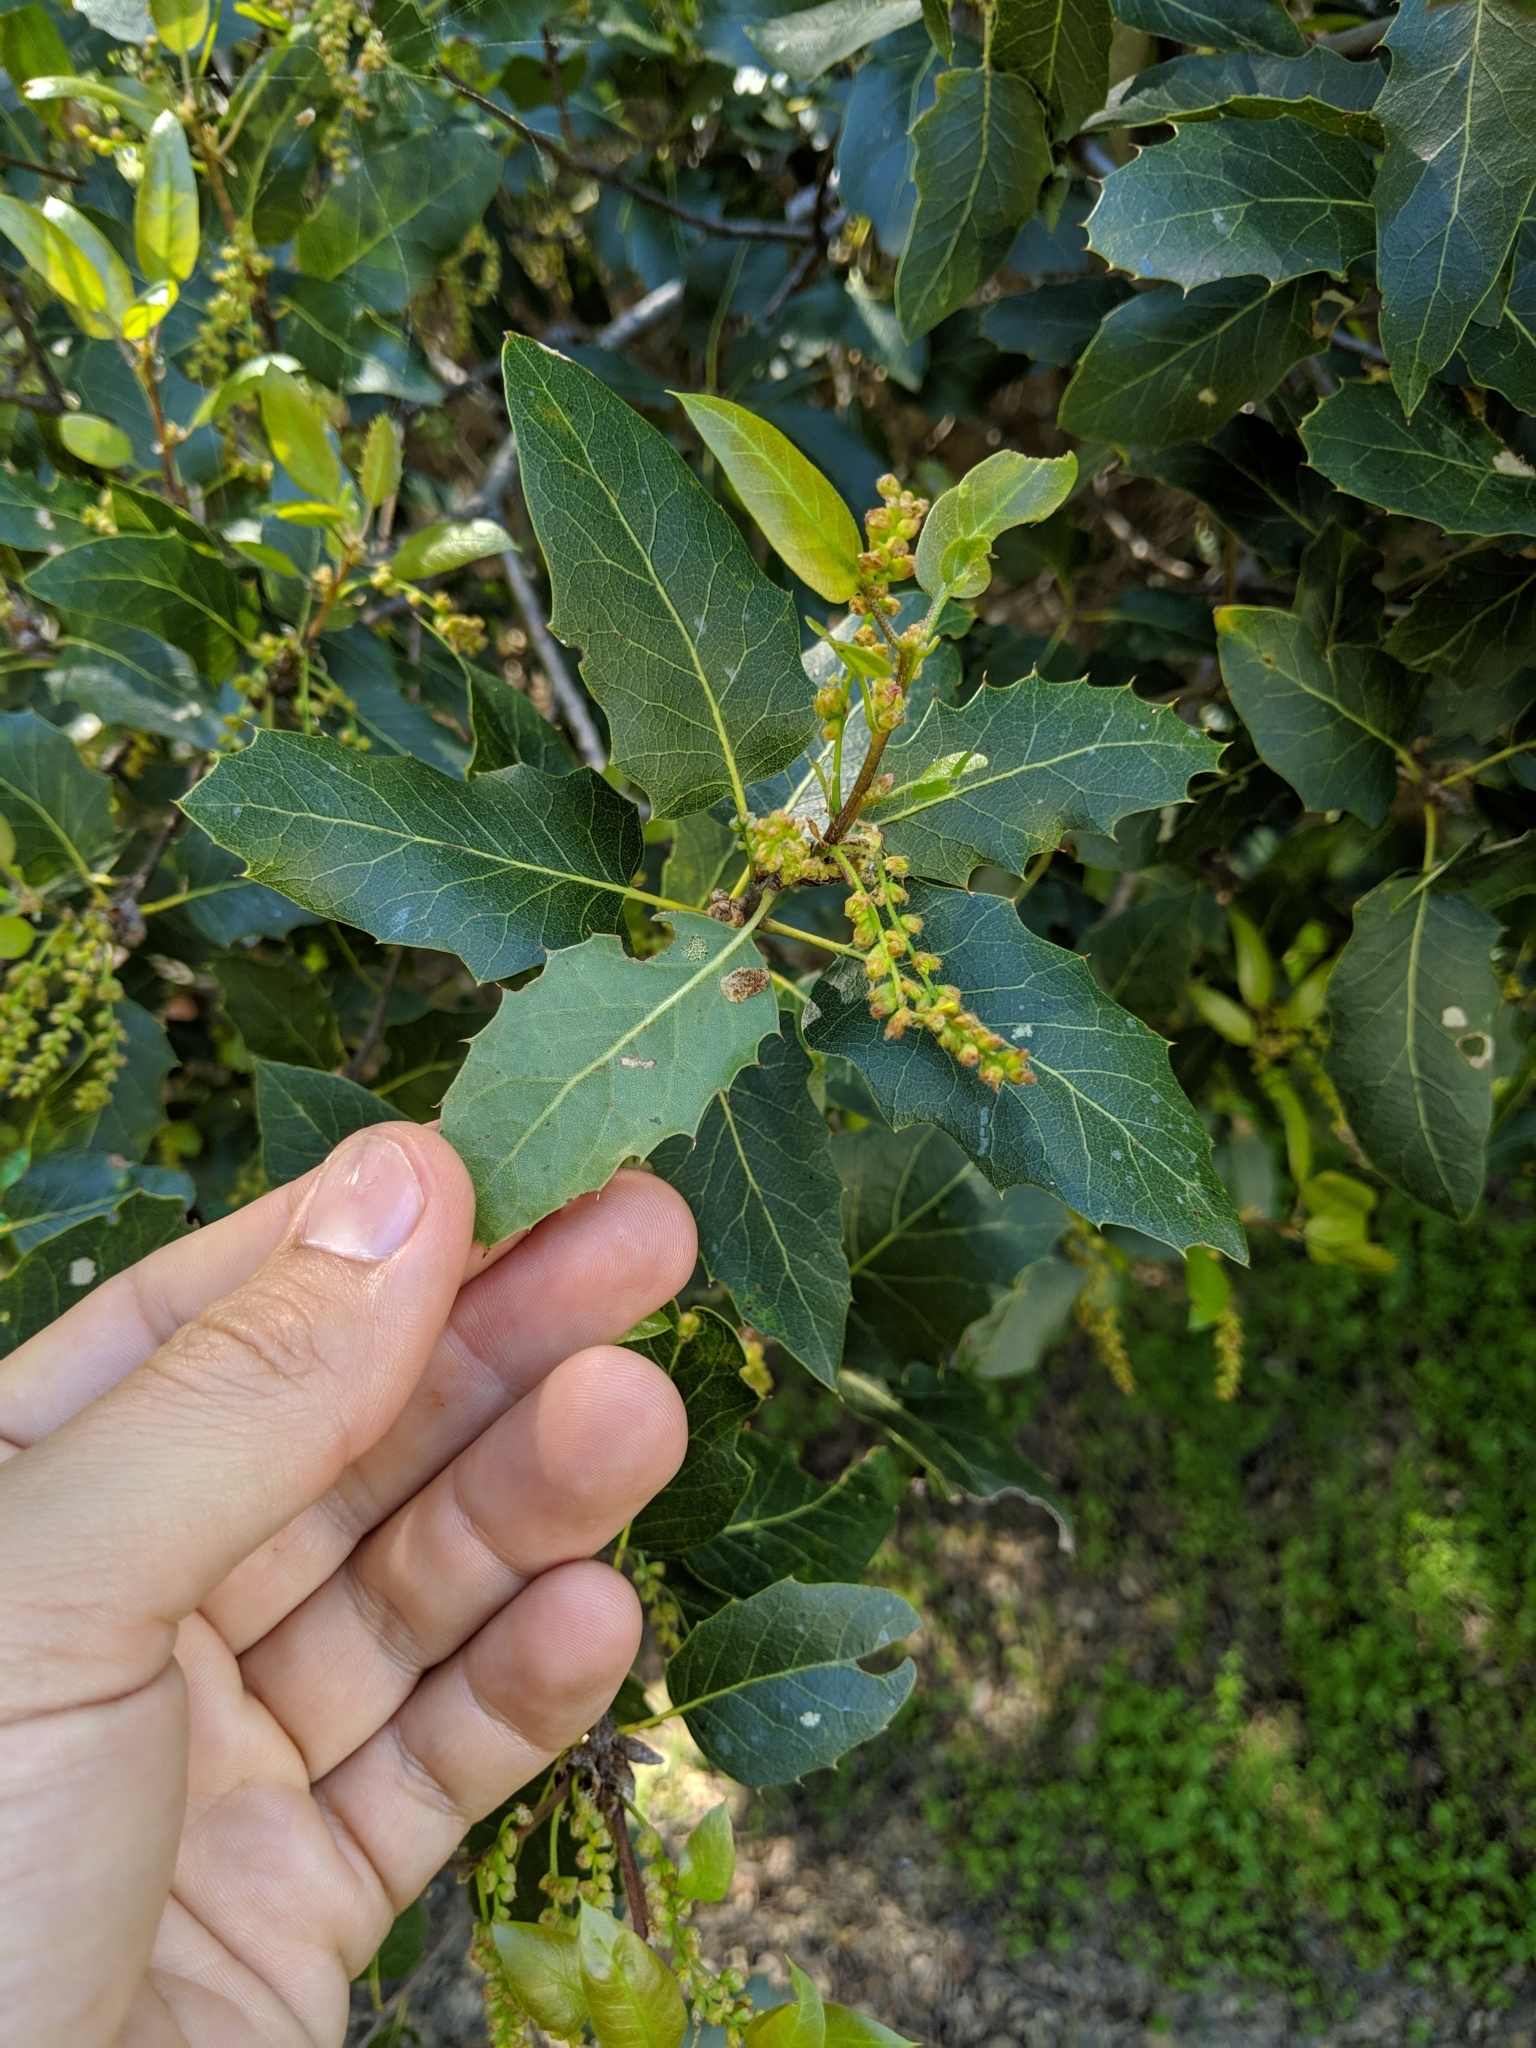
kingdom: Plantae
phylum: Tracheophyta
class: Magnoliopsida
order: Fagales
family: Fagaceae
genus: Quercus
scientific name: Quercus wislizeni
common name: Interior live oak
